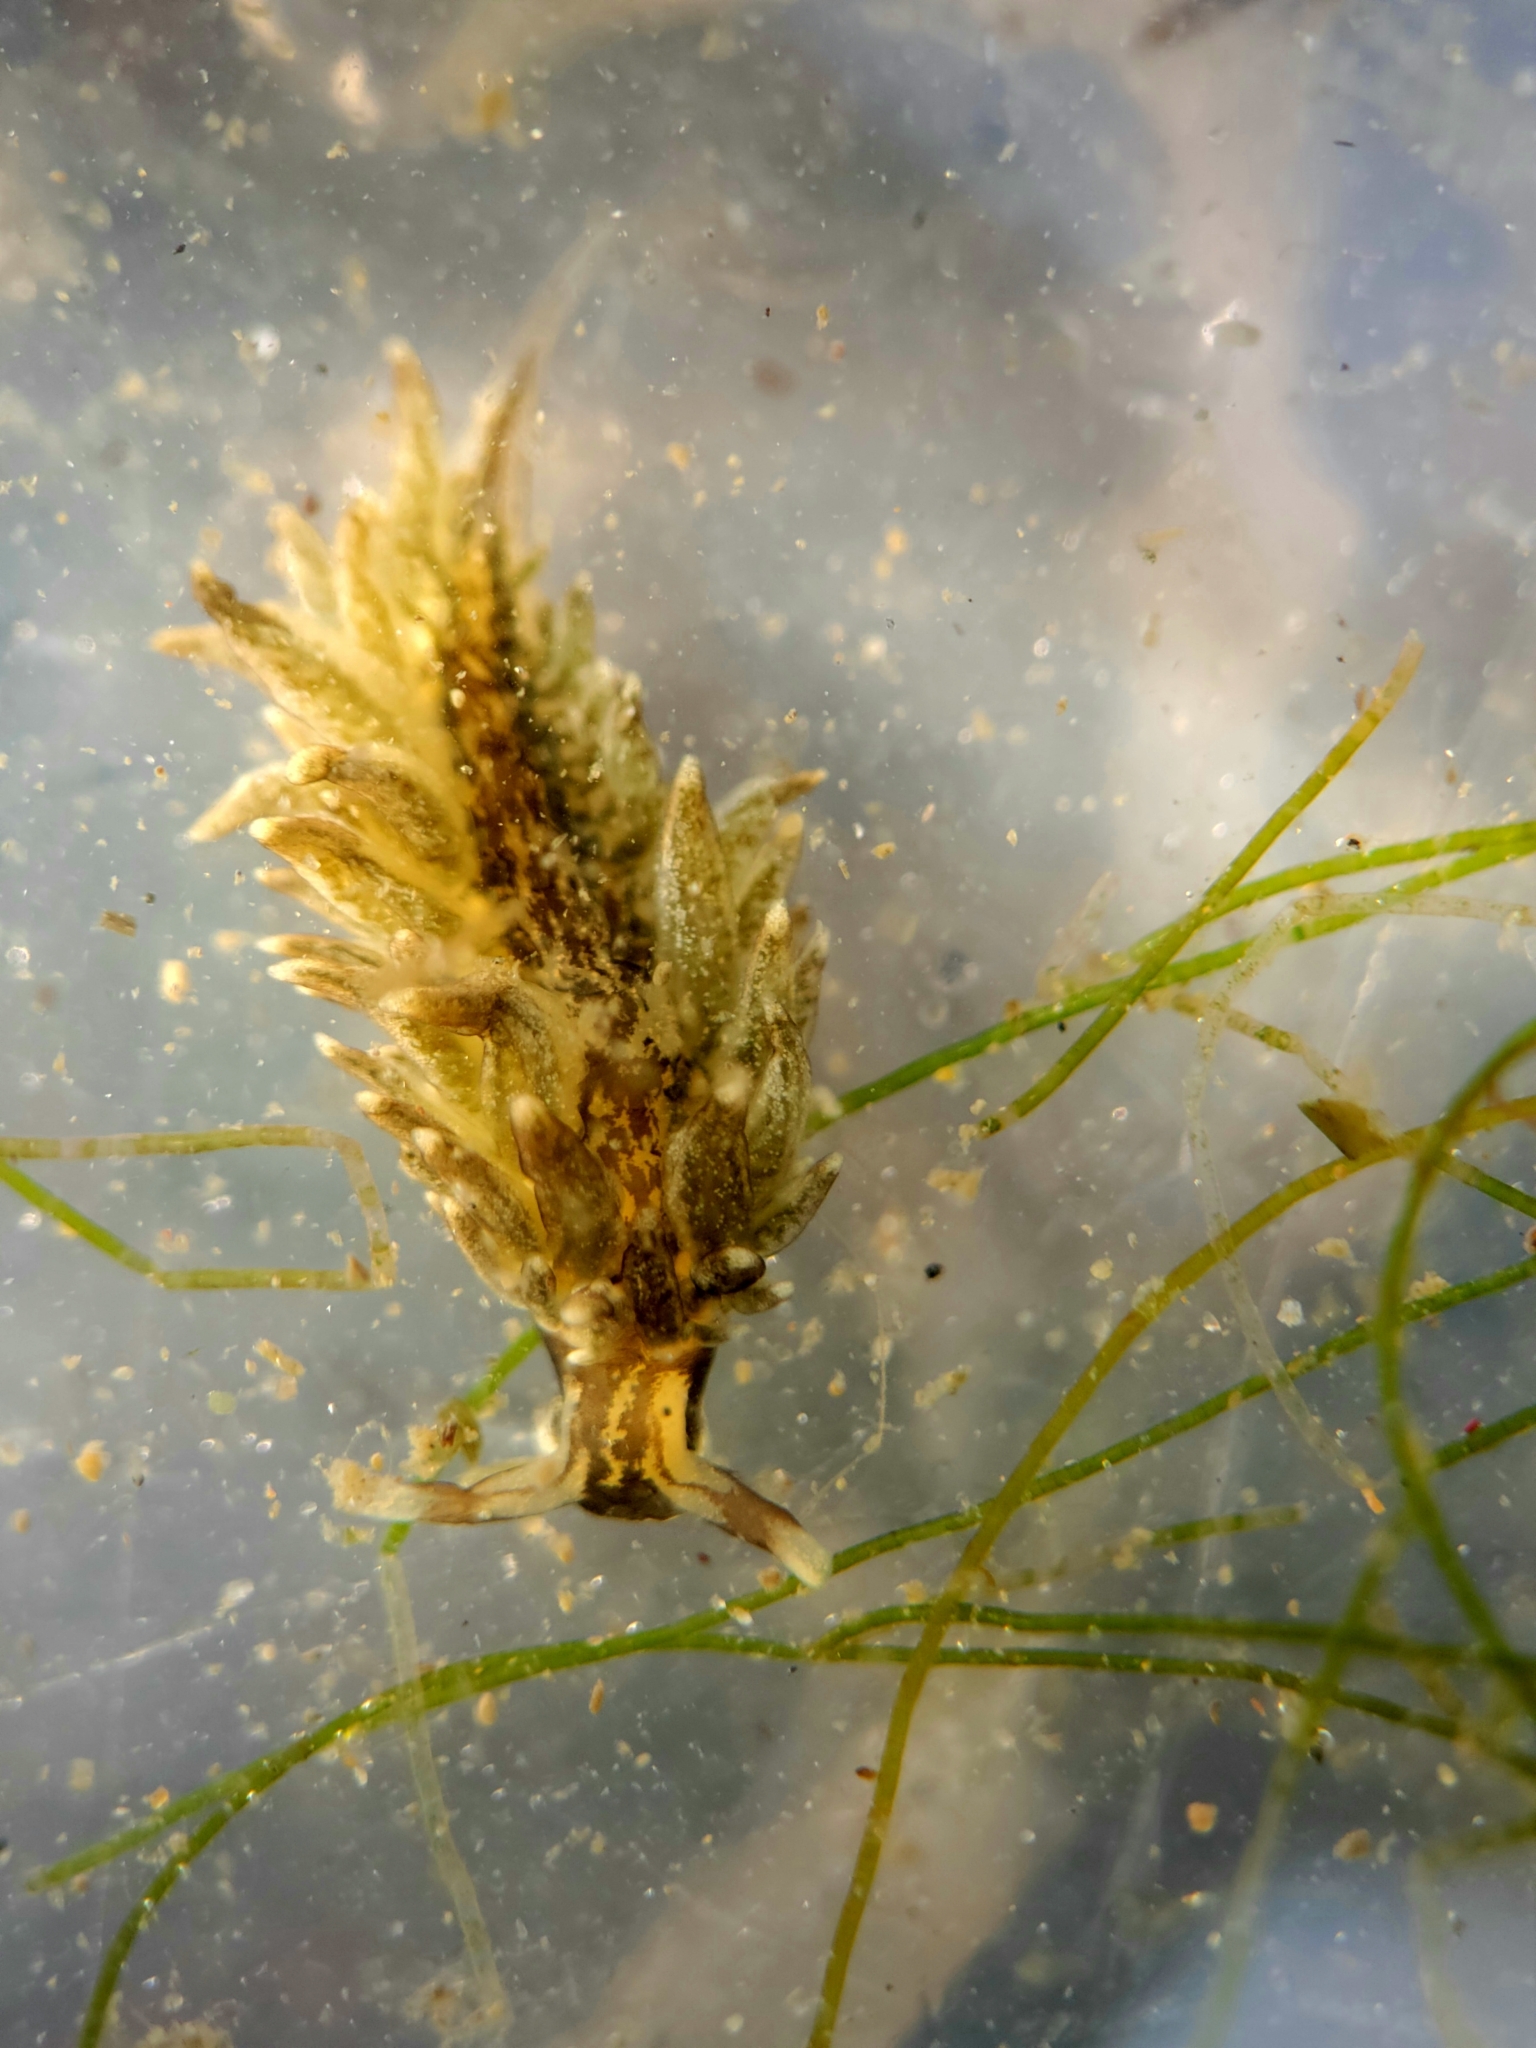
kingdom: Animalia
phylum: Mollusca
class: Gastropoda
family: Hermaeidae
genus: Aplysiopsis
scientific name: Aplysiopsis enteromorphae
